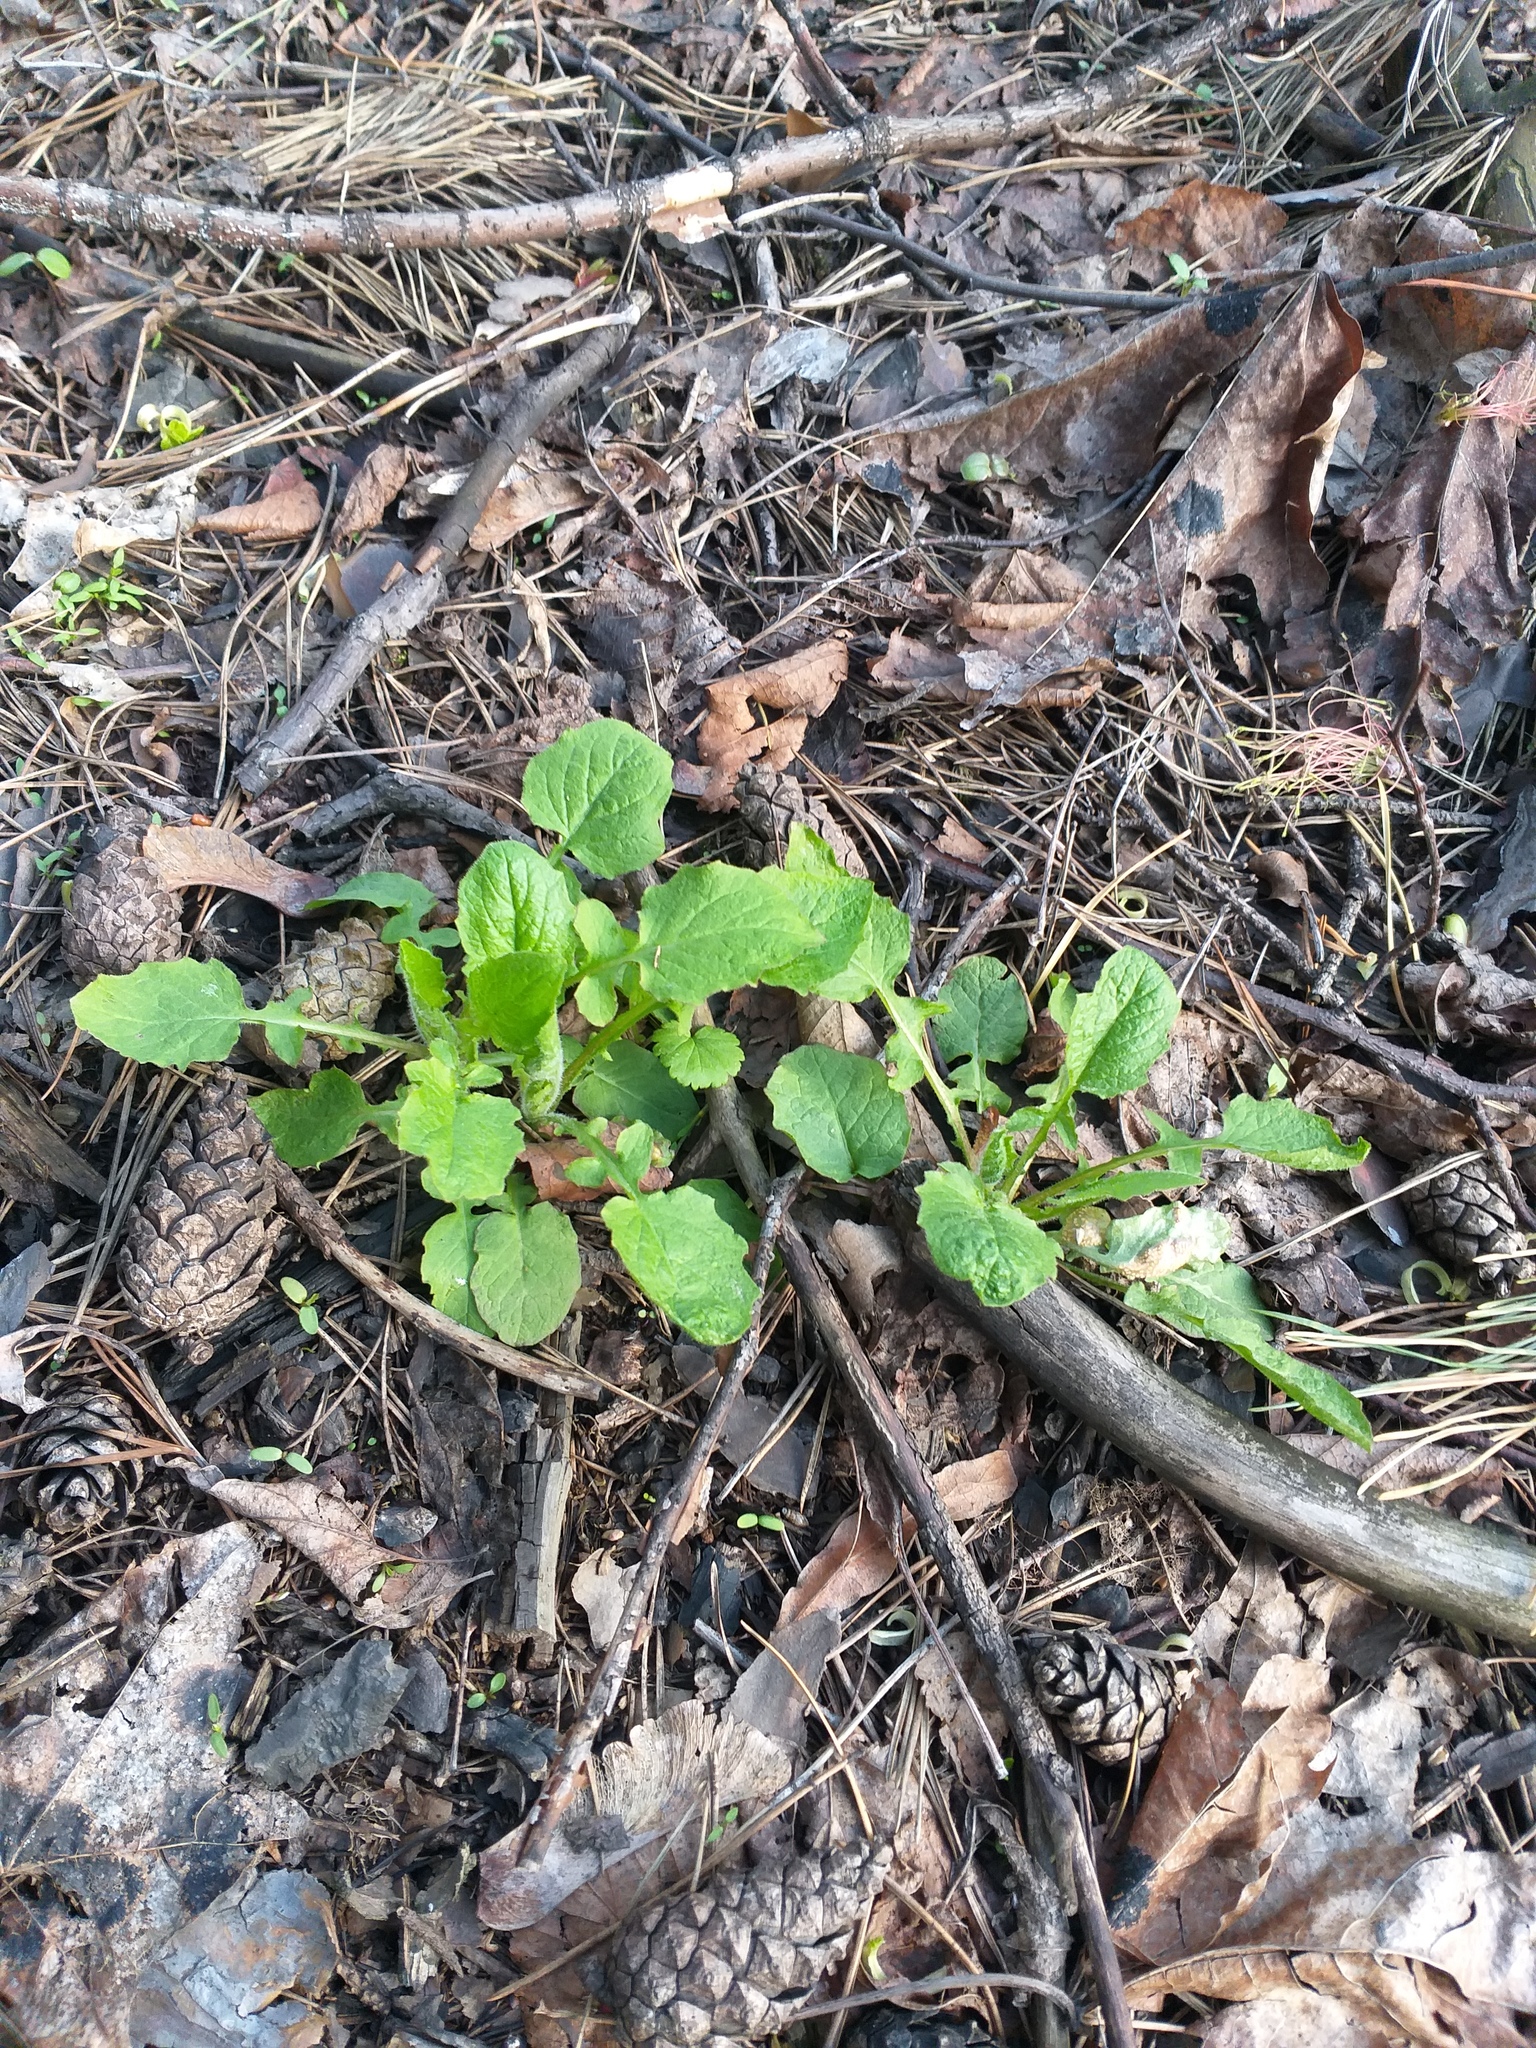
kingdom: Plantae
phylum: Tracheophyta
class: Magnoliopsida
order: Asterales
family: Asteraceae
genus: Lapsana
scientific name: Lapsana communis
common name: Nipplewort
